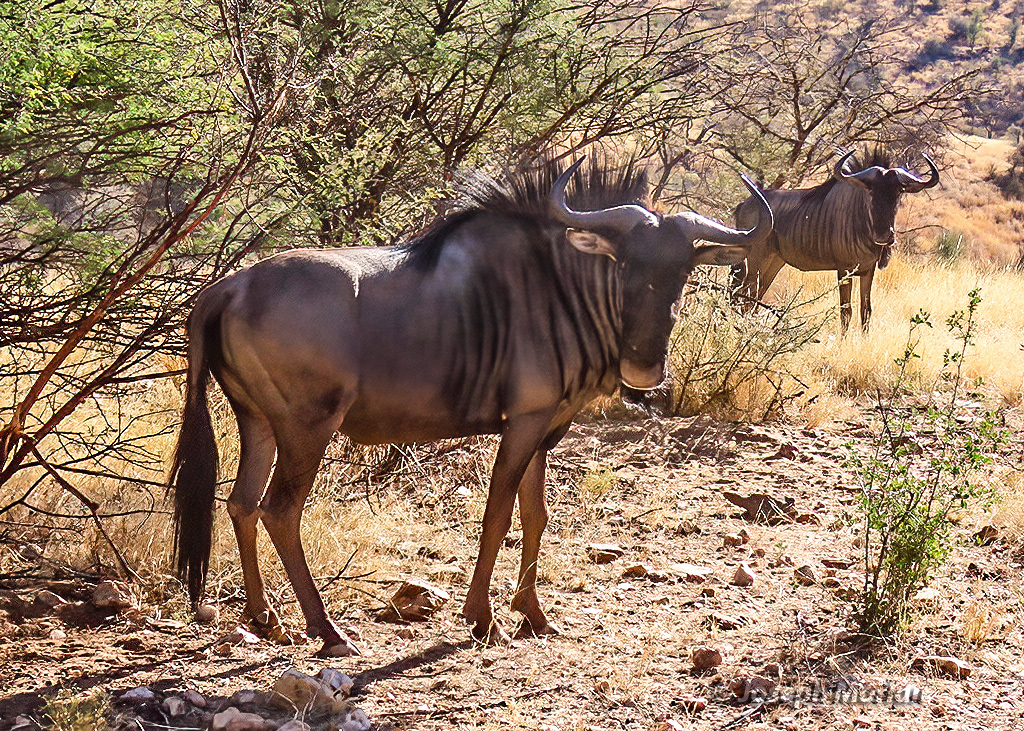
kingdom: Animalia
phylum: Chordata
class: Mammalia
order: Artiodactyla
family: Bovidae
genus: Connochaetes
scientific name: Connochaetes taurinus
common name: Blue wildebeest
